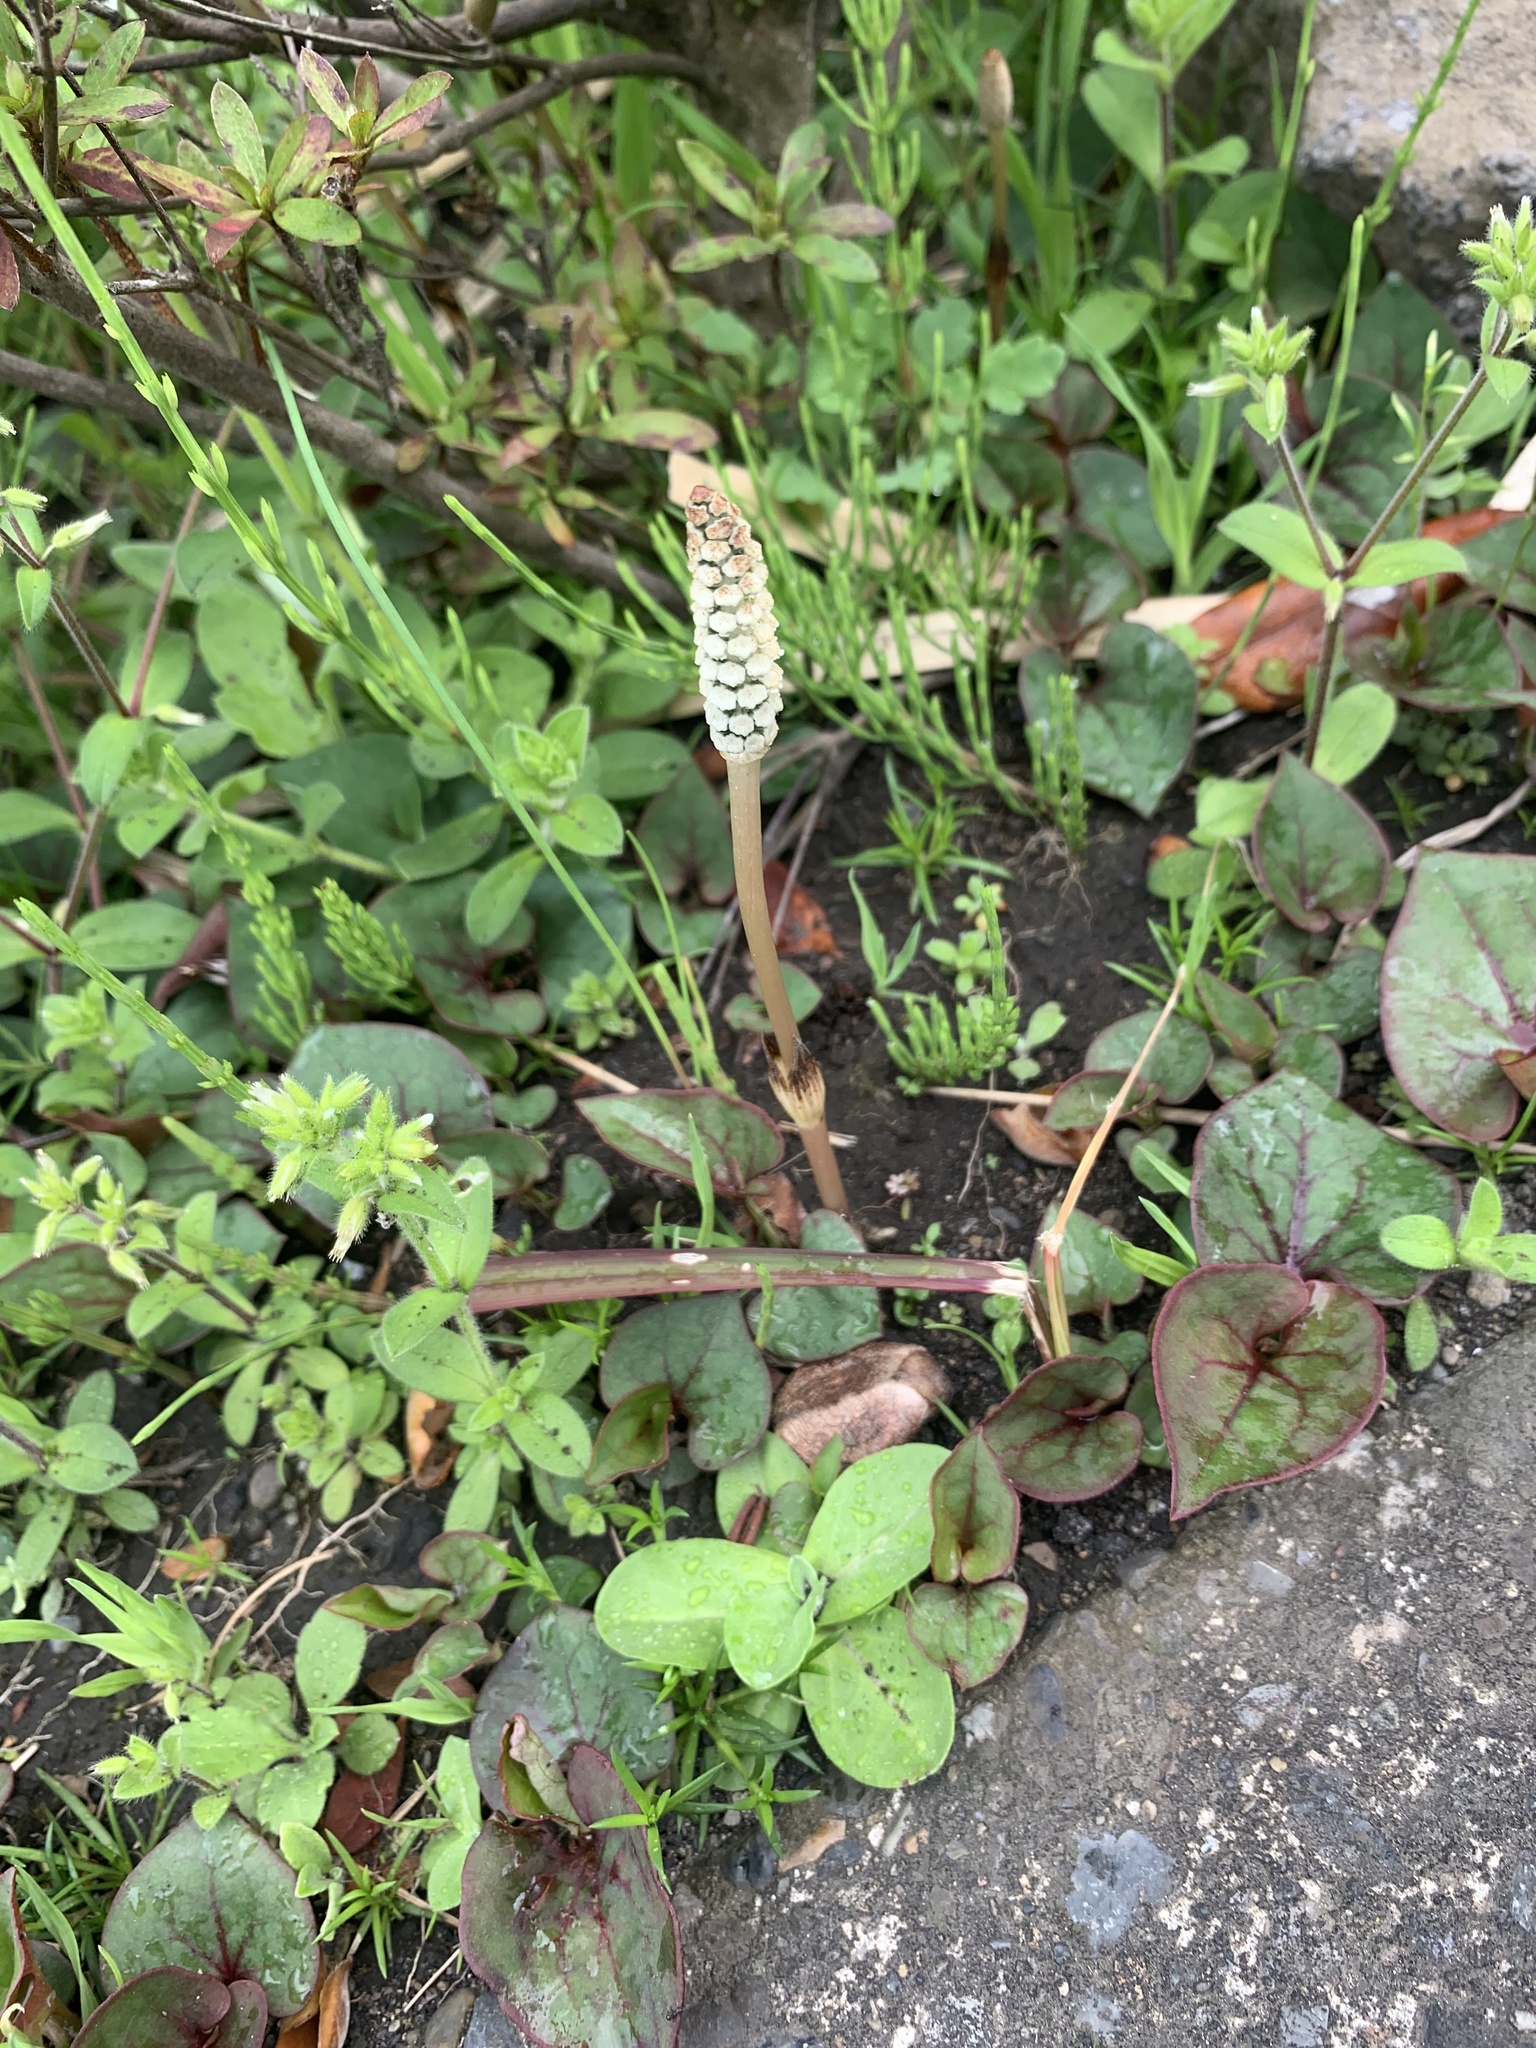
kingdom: Plantae
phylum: Tracheophyta
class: Polypodiopsida
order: Equisetales
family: Equisetaceae
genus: Equisetum
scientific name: Equisetum arvense
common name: Field horsetail
